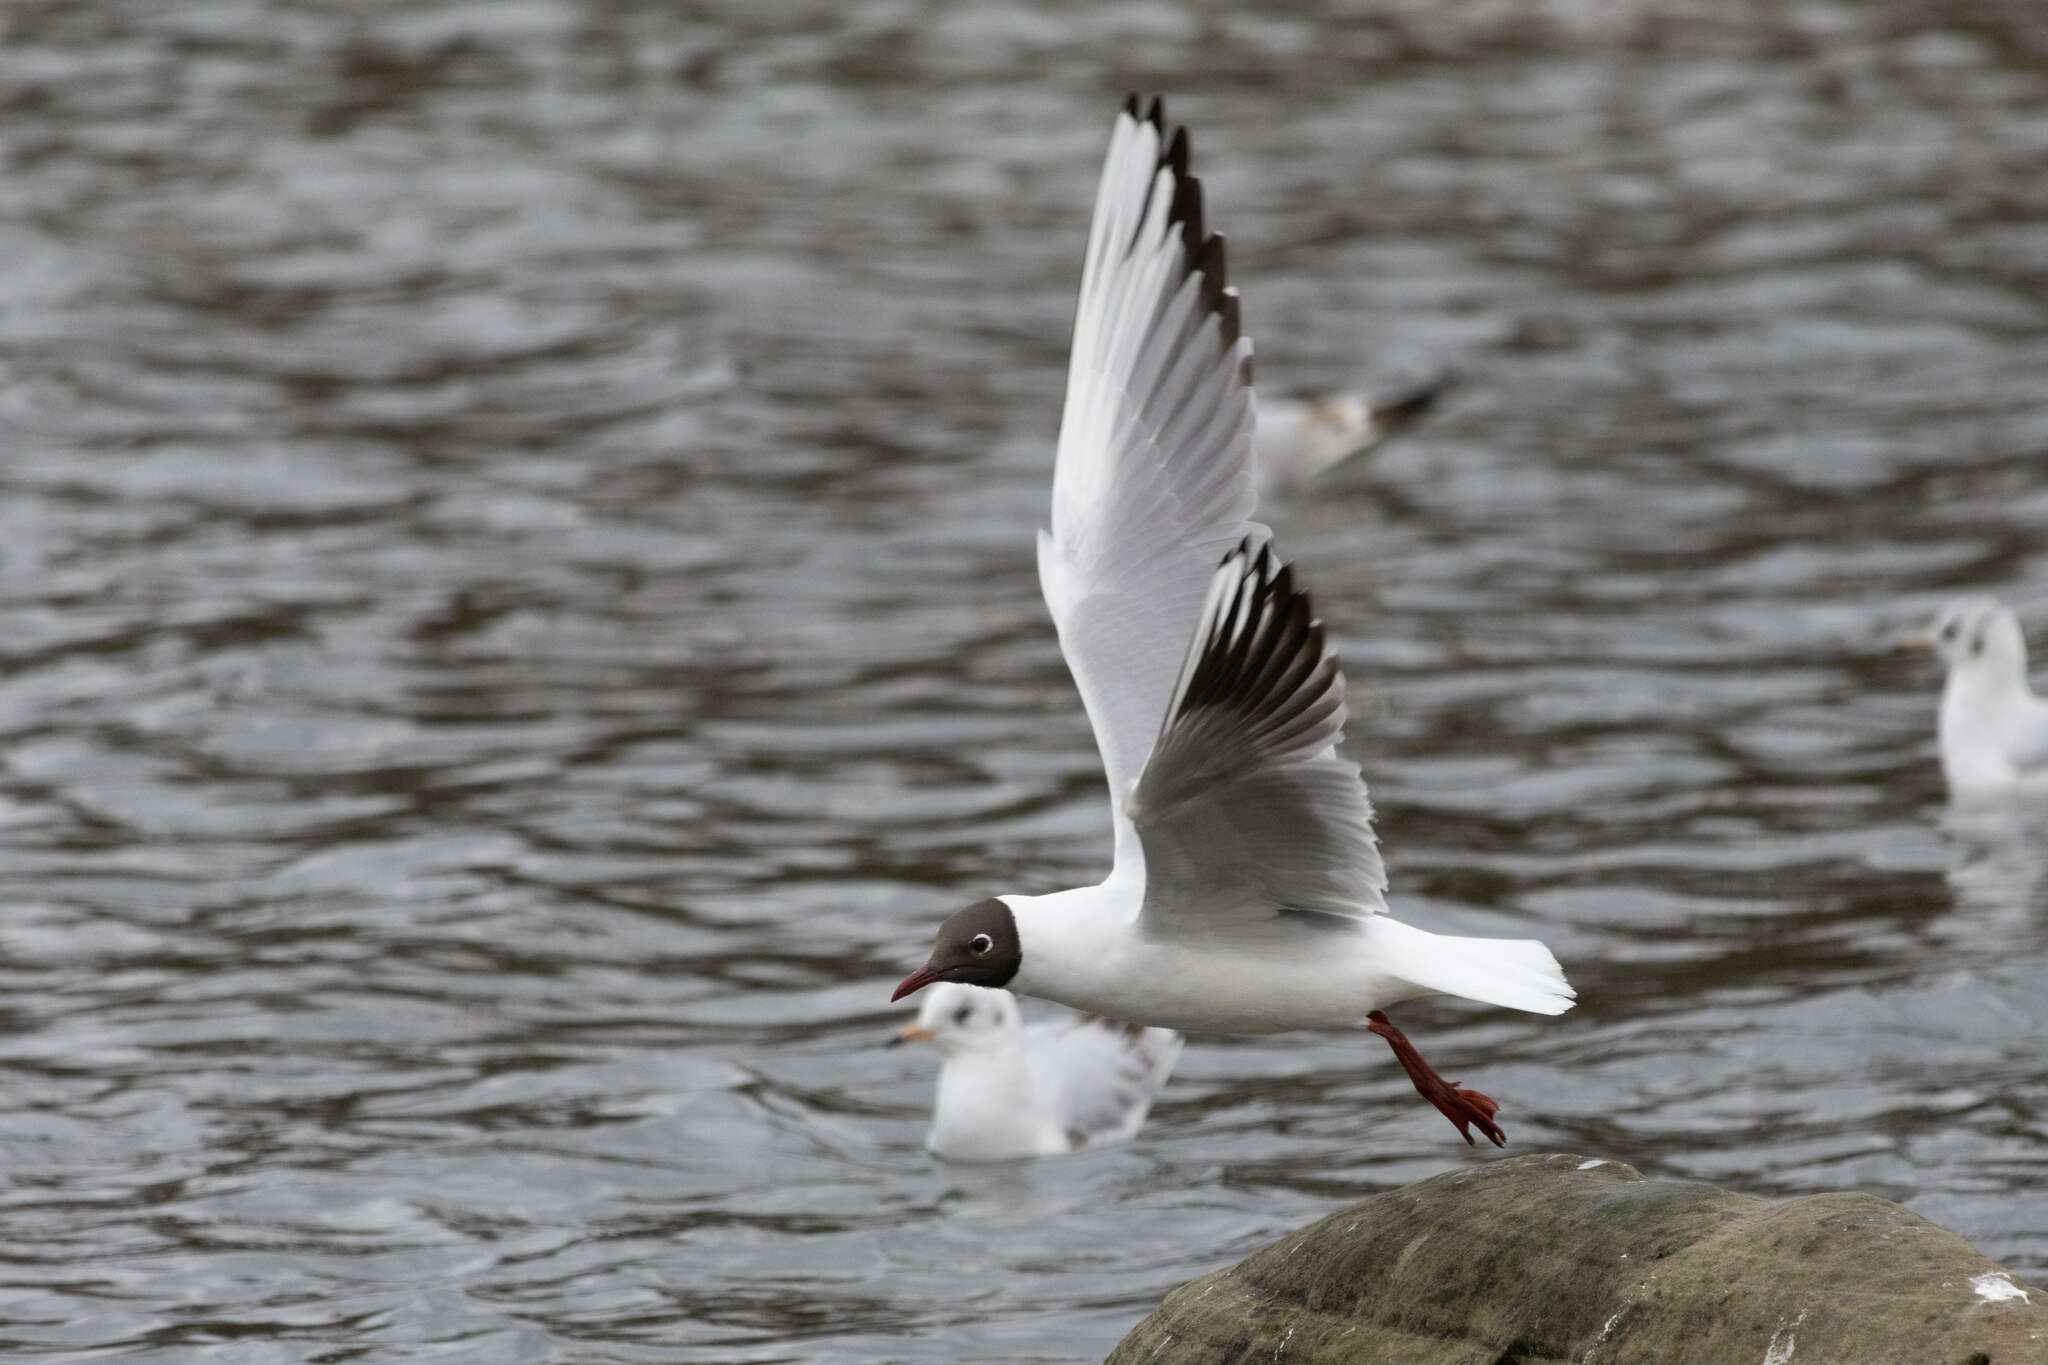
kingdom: Animalia
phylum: Chordata
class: Aves
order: Charadriiformes
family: Laridae
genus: Chroicocephalus
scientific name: Chroicocephalus ridibundus
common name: Black-headed gull
